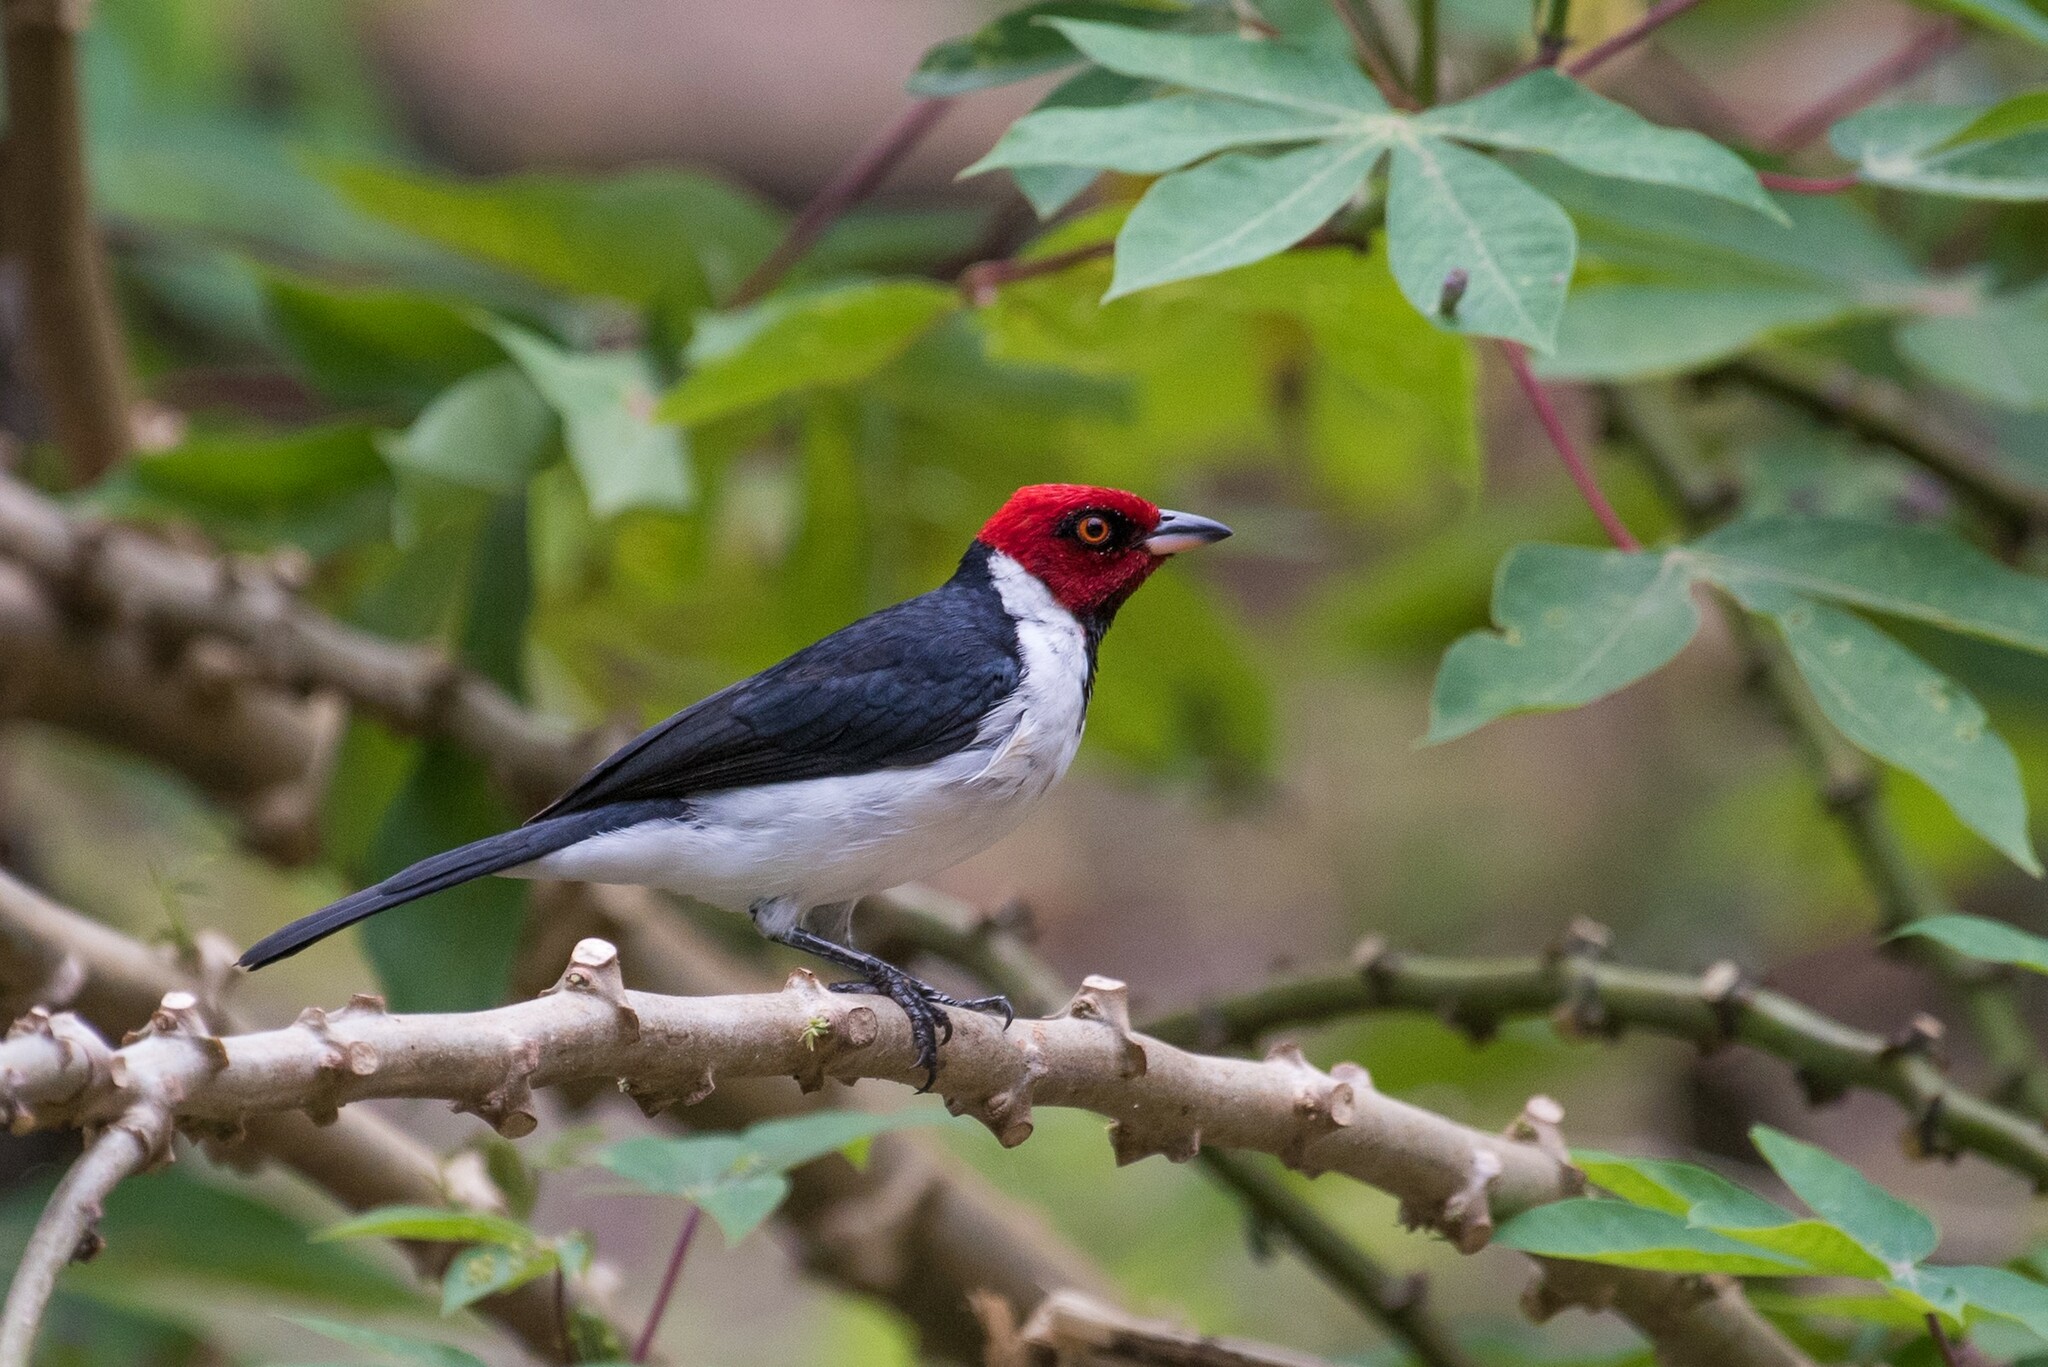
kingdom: Animalia
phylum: Chordata
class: Aves
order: Passeriformes
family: Thraupidae
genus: Paroaria
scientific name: Paroaria gularis
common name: Red-capped cardinal
